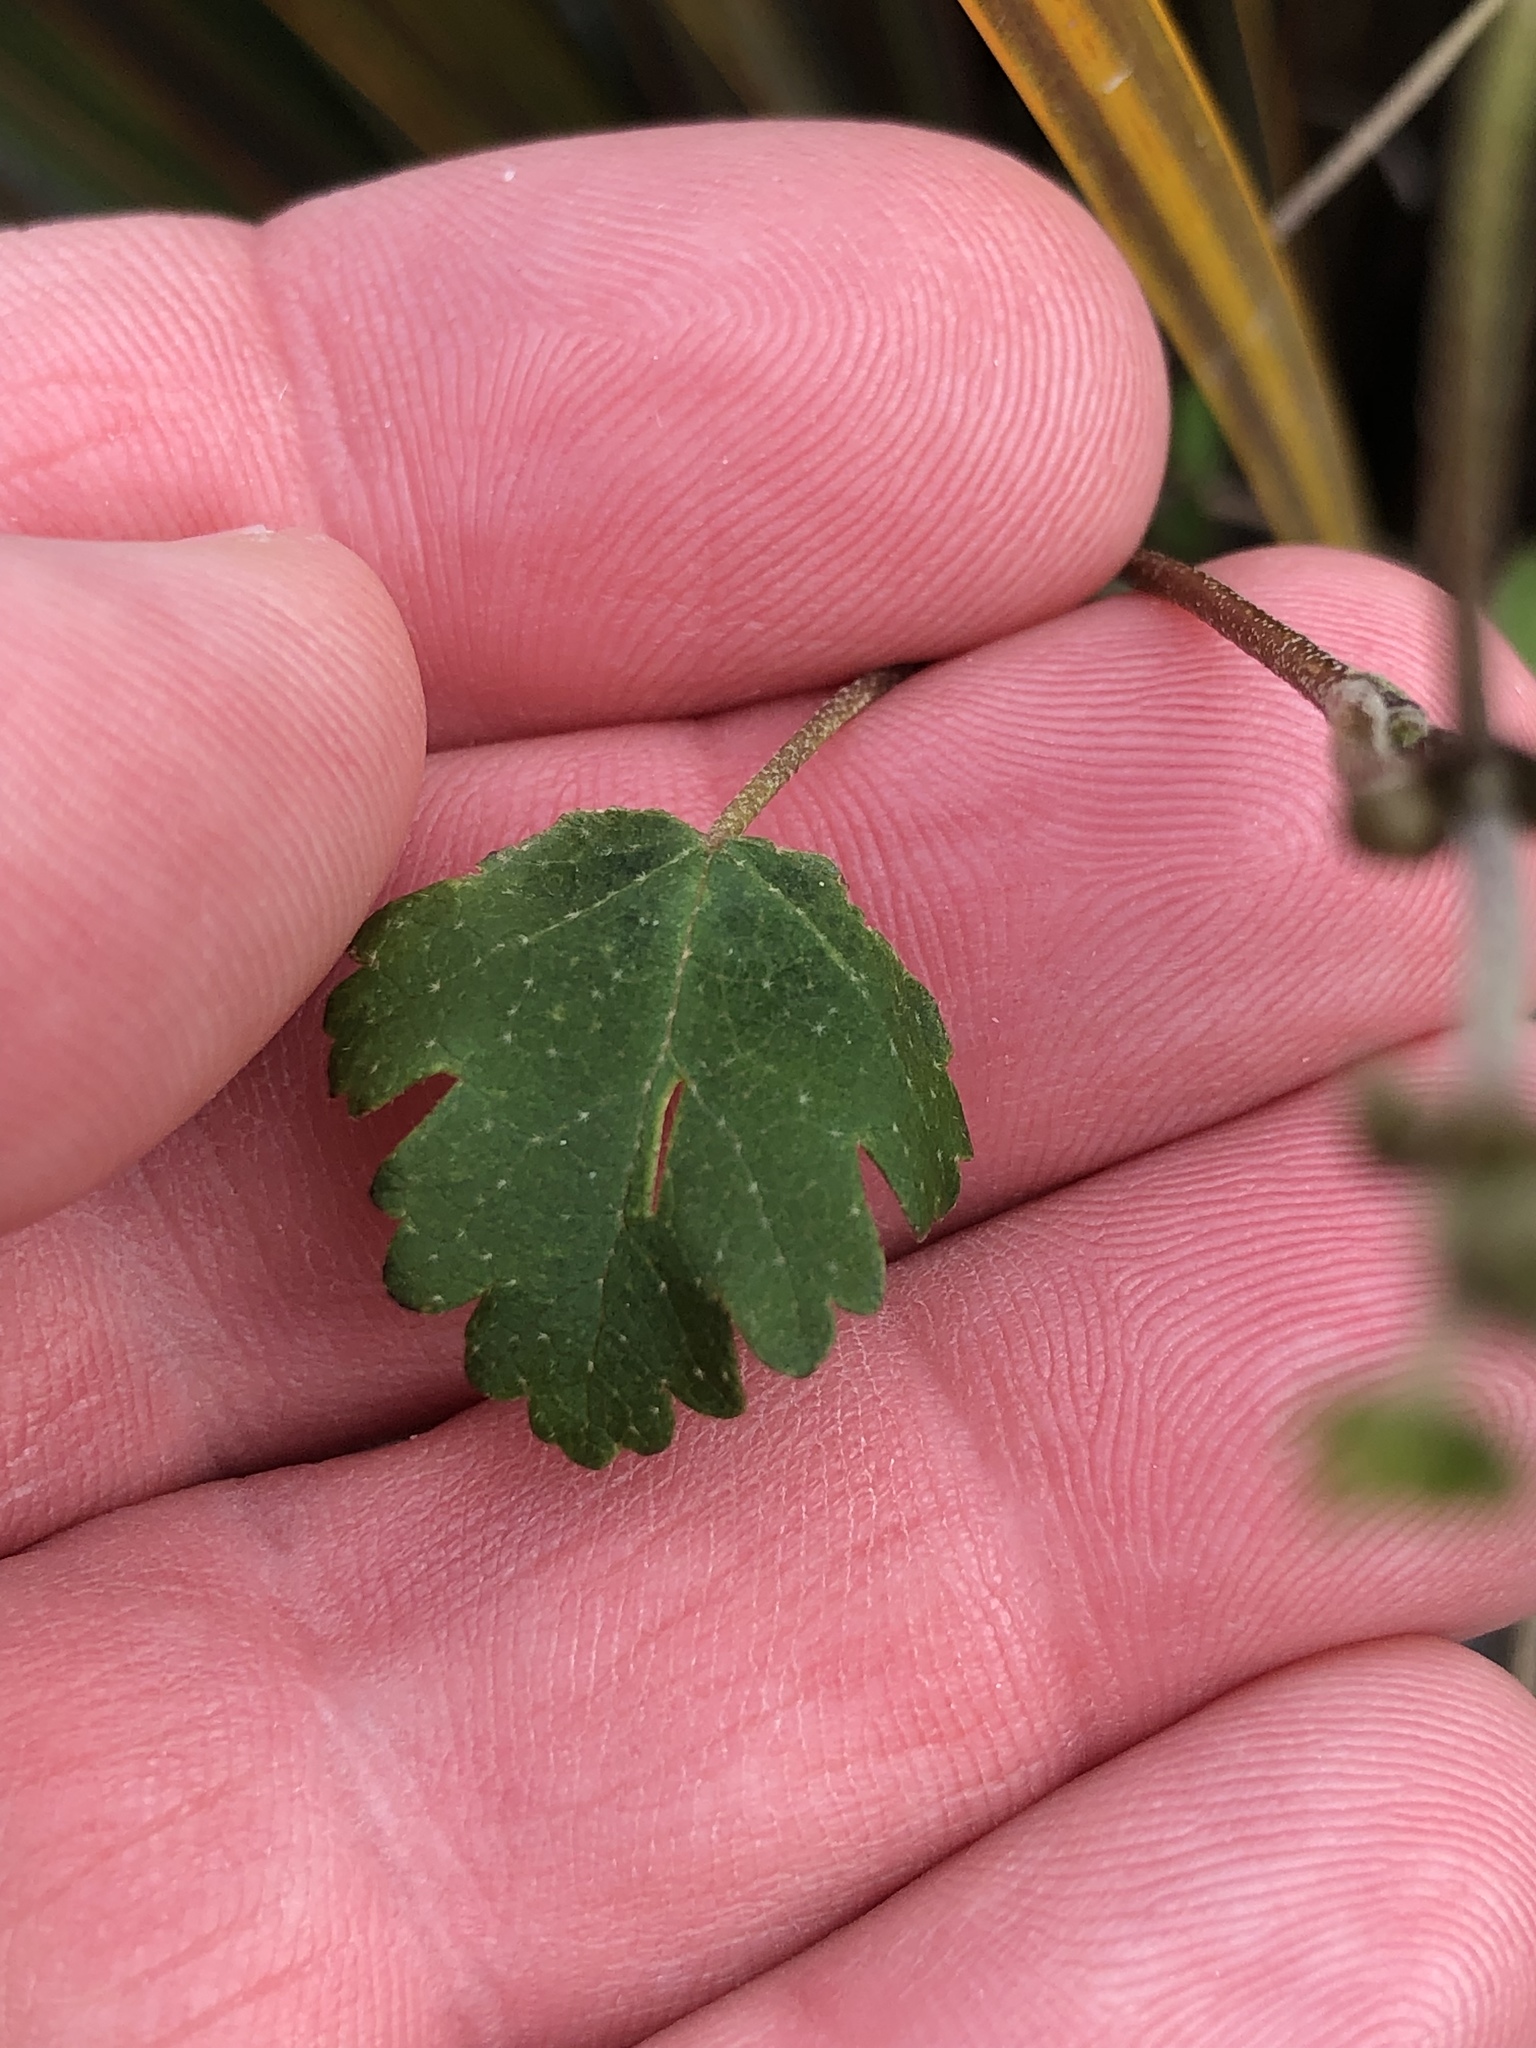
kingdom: Plantae
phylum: Tracheophyta
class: Magnoliopsida
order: Malvales
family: Malvaceae
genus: Plagianthus
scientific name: Plagianthus regius
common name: Manatu
